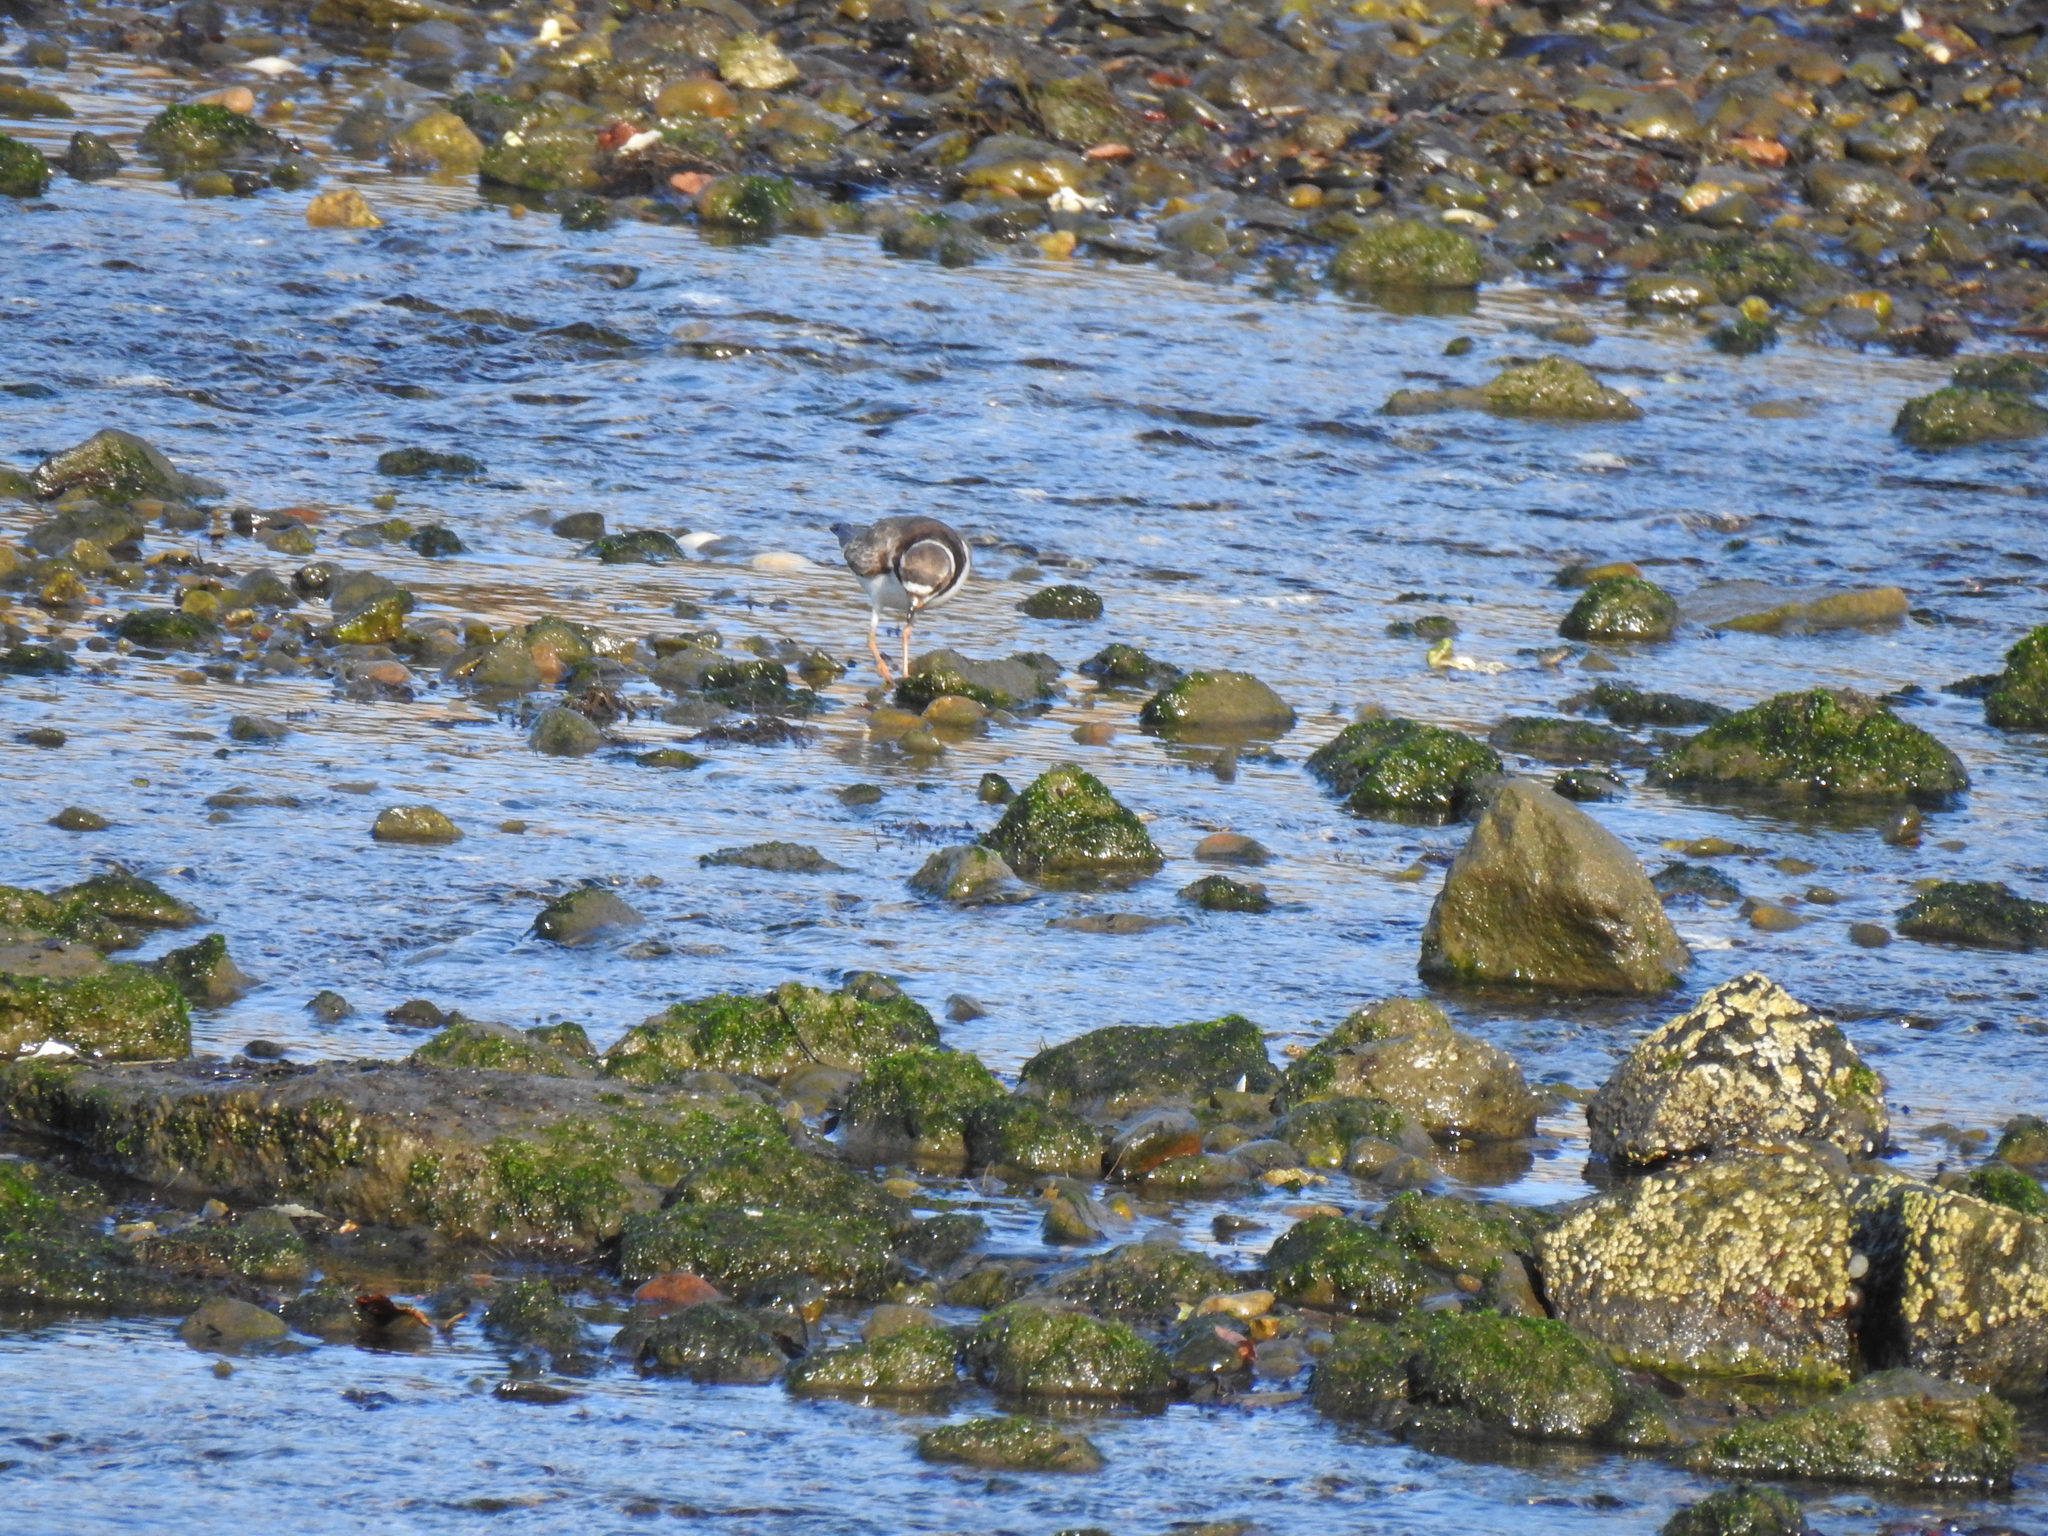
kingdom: Animalia
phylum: Chordata
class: Aves
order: Charadriiformes
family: Charadriidae
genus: Charadrius
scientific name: Charadrius semipalmatus
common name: Semipalmated plover
